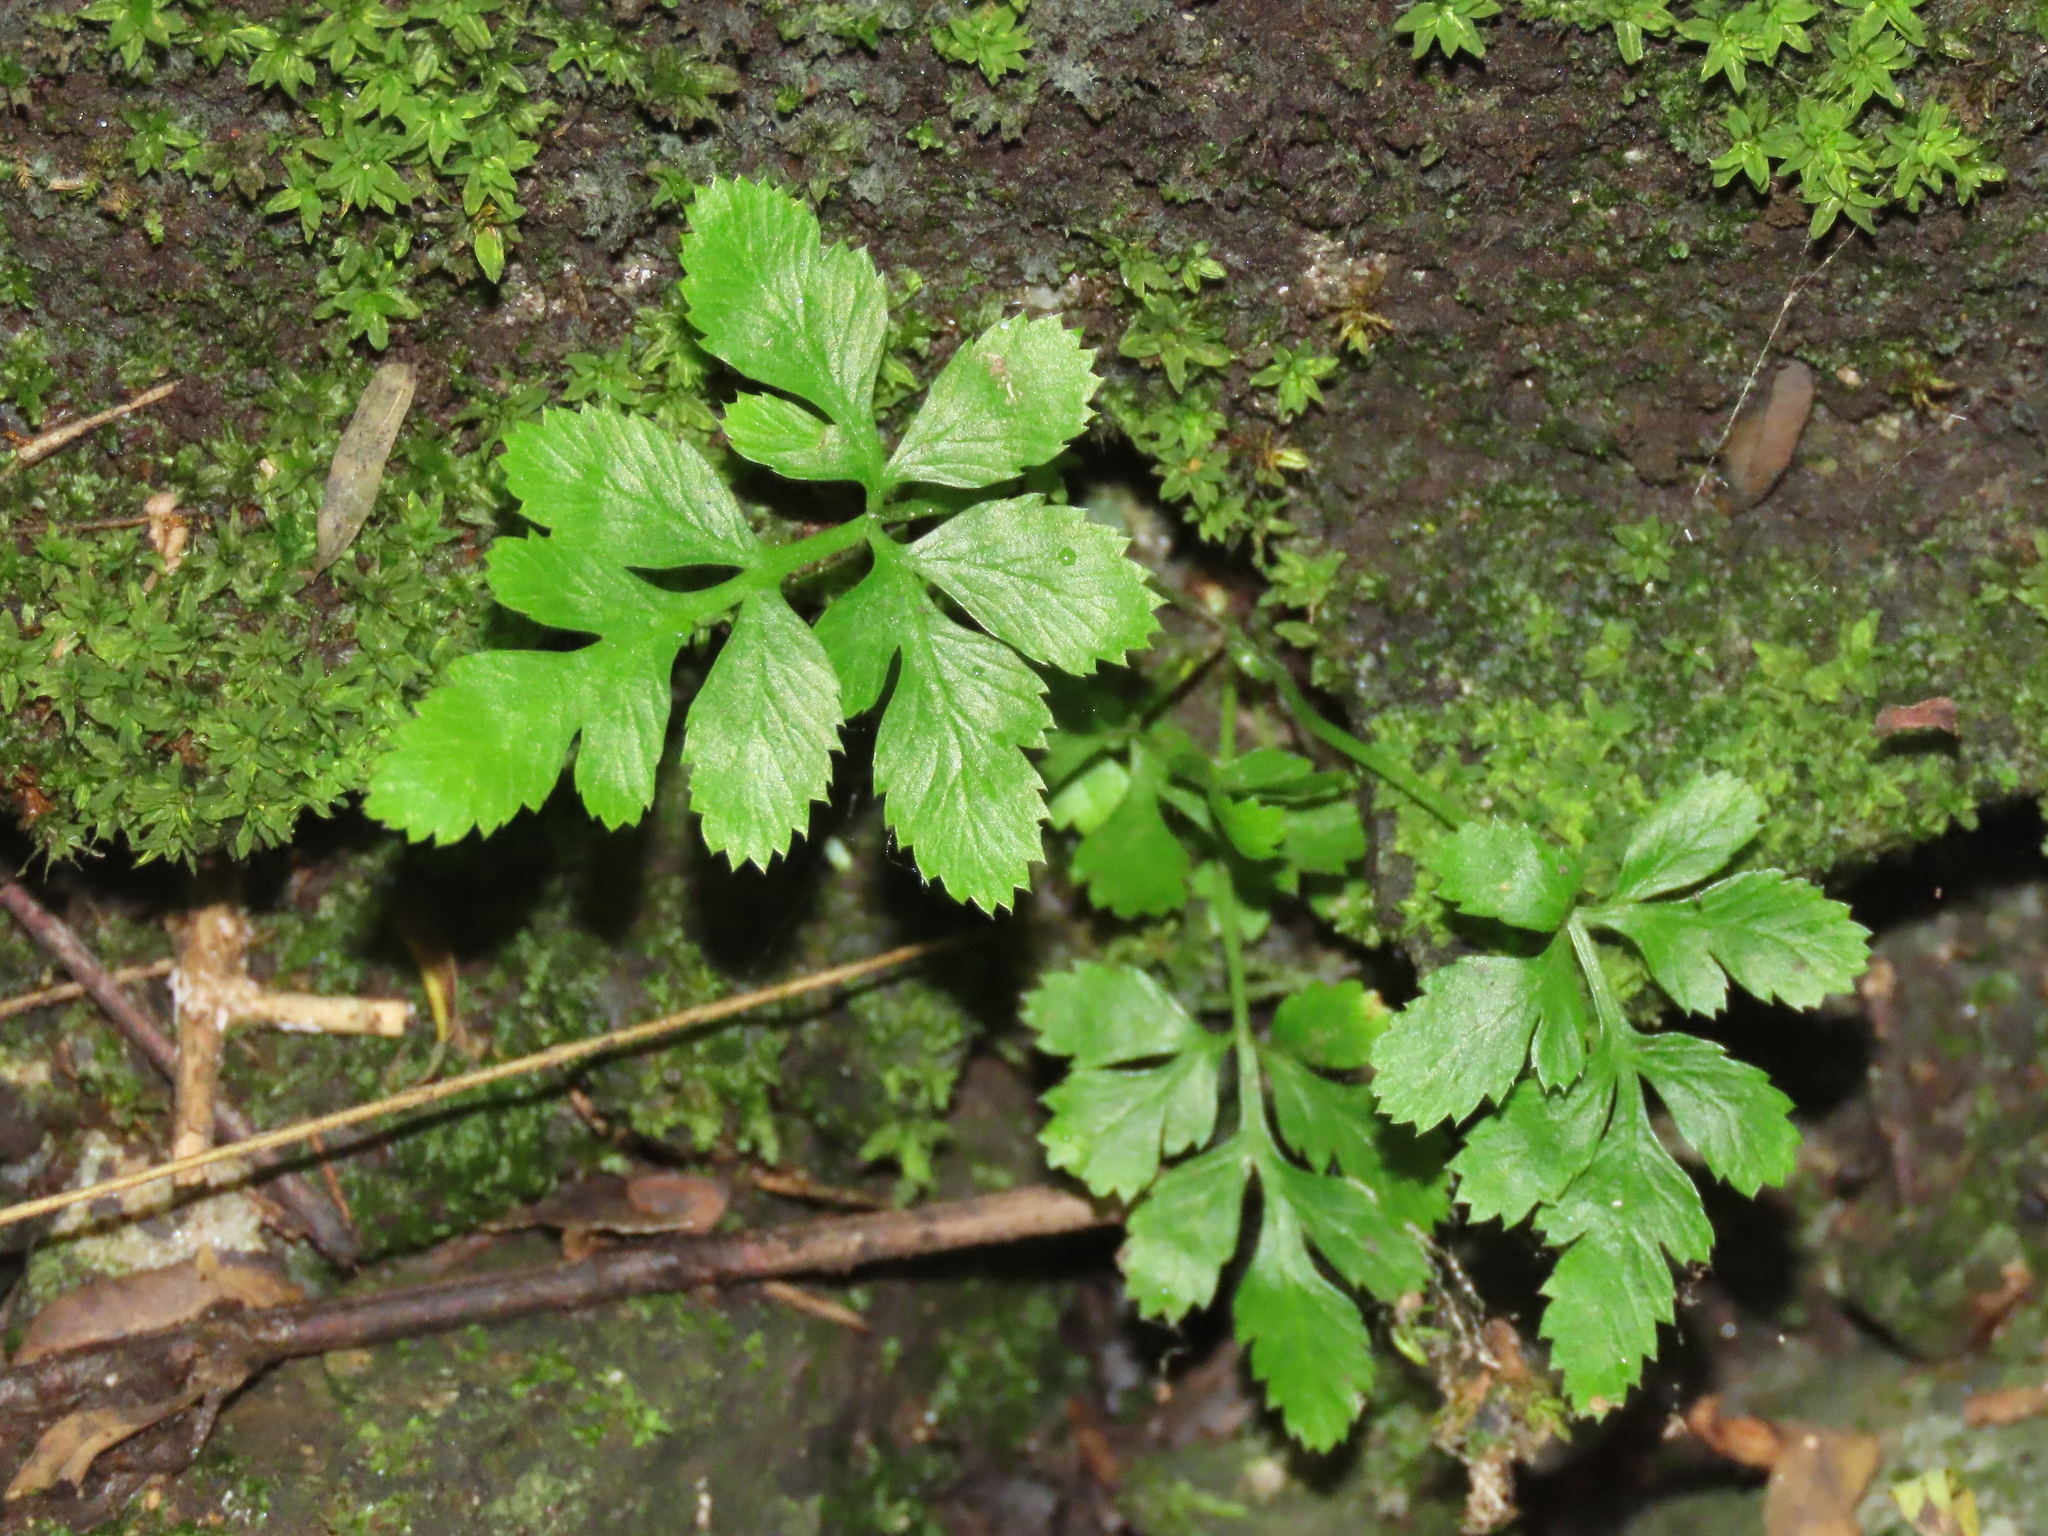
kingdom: Plantae
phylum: Tracheophyta
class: Polypodiopsida
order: Polypodiales
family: Pteridaceae
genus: Pteris
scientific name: Pteris ensiformis
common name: Sword brake
